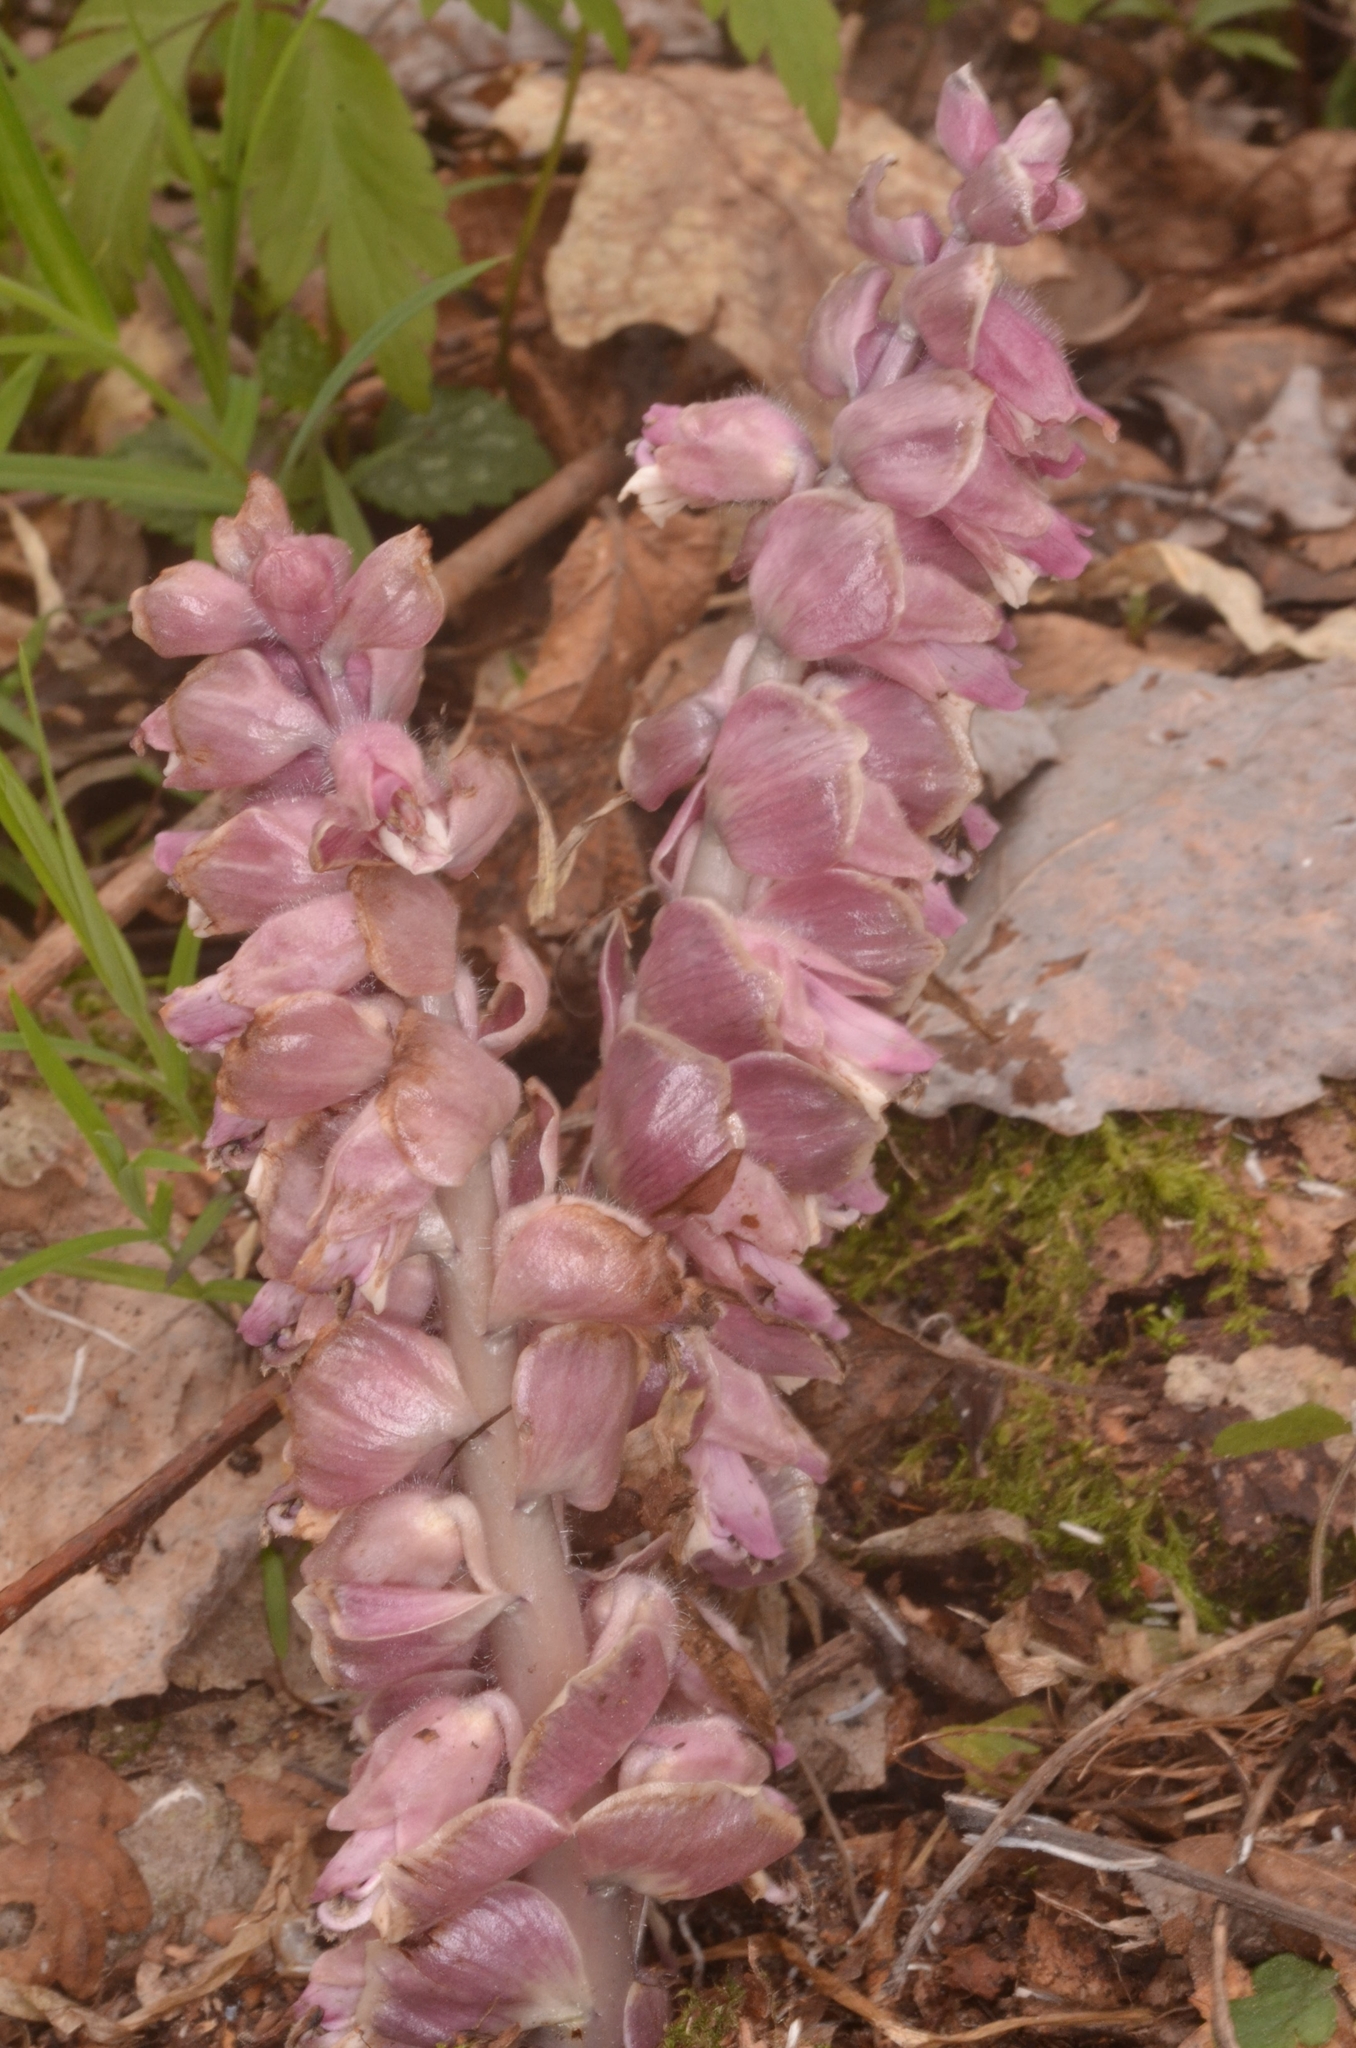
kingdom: Plantae
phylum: Tracheophyta
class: Magnoliopsida
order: Lamiales
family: Orobanchaceae
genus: Lathraea
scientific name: Lathraea squamaria
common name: Toothwort
